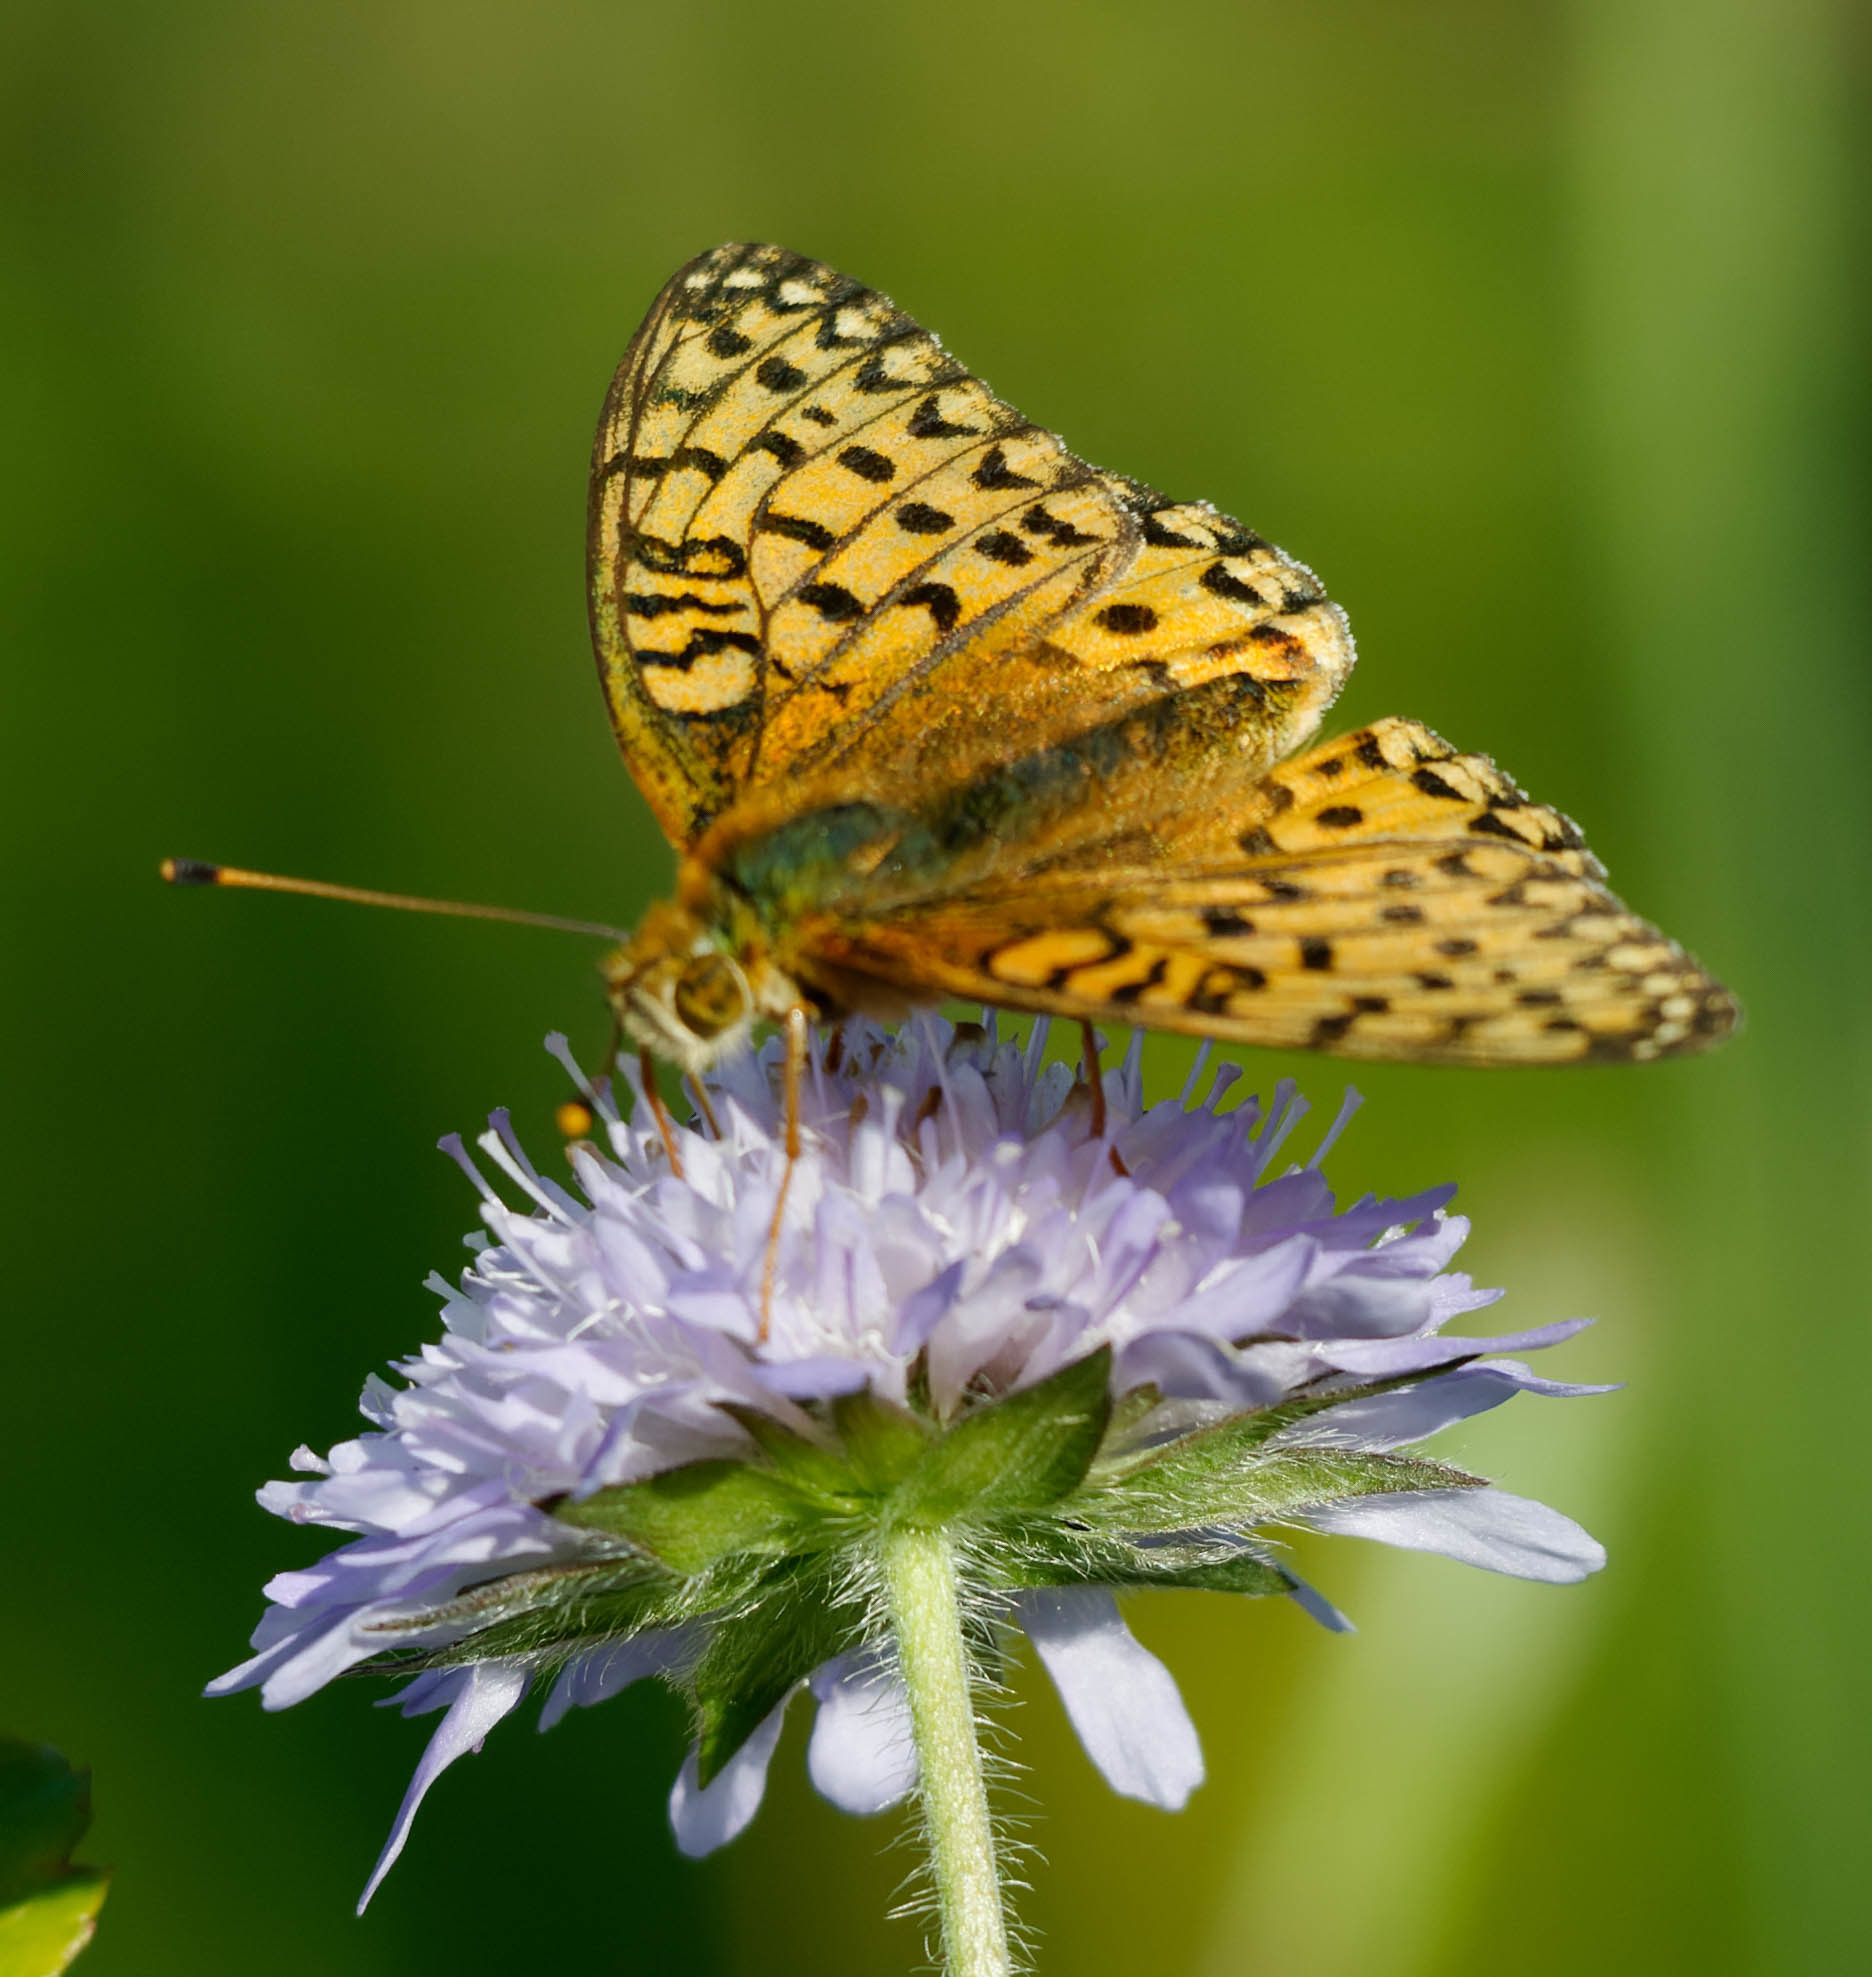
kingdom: Animalia
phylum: Arthropoda
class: Insecta
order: Lepidoptera
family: Nymphalidae
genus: Speyeria
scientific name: Speyeria aglaja
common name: Dark green fritillary
